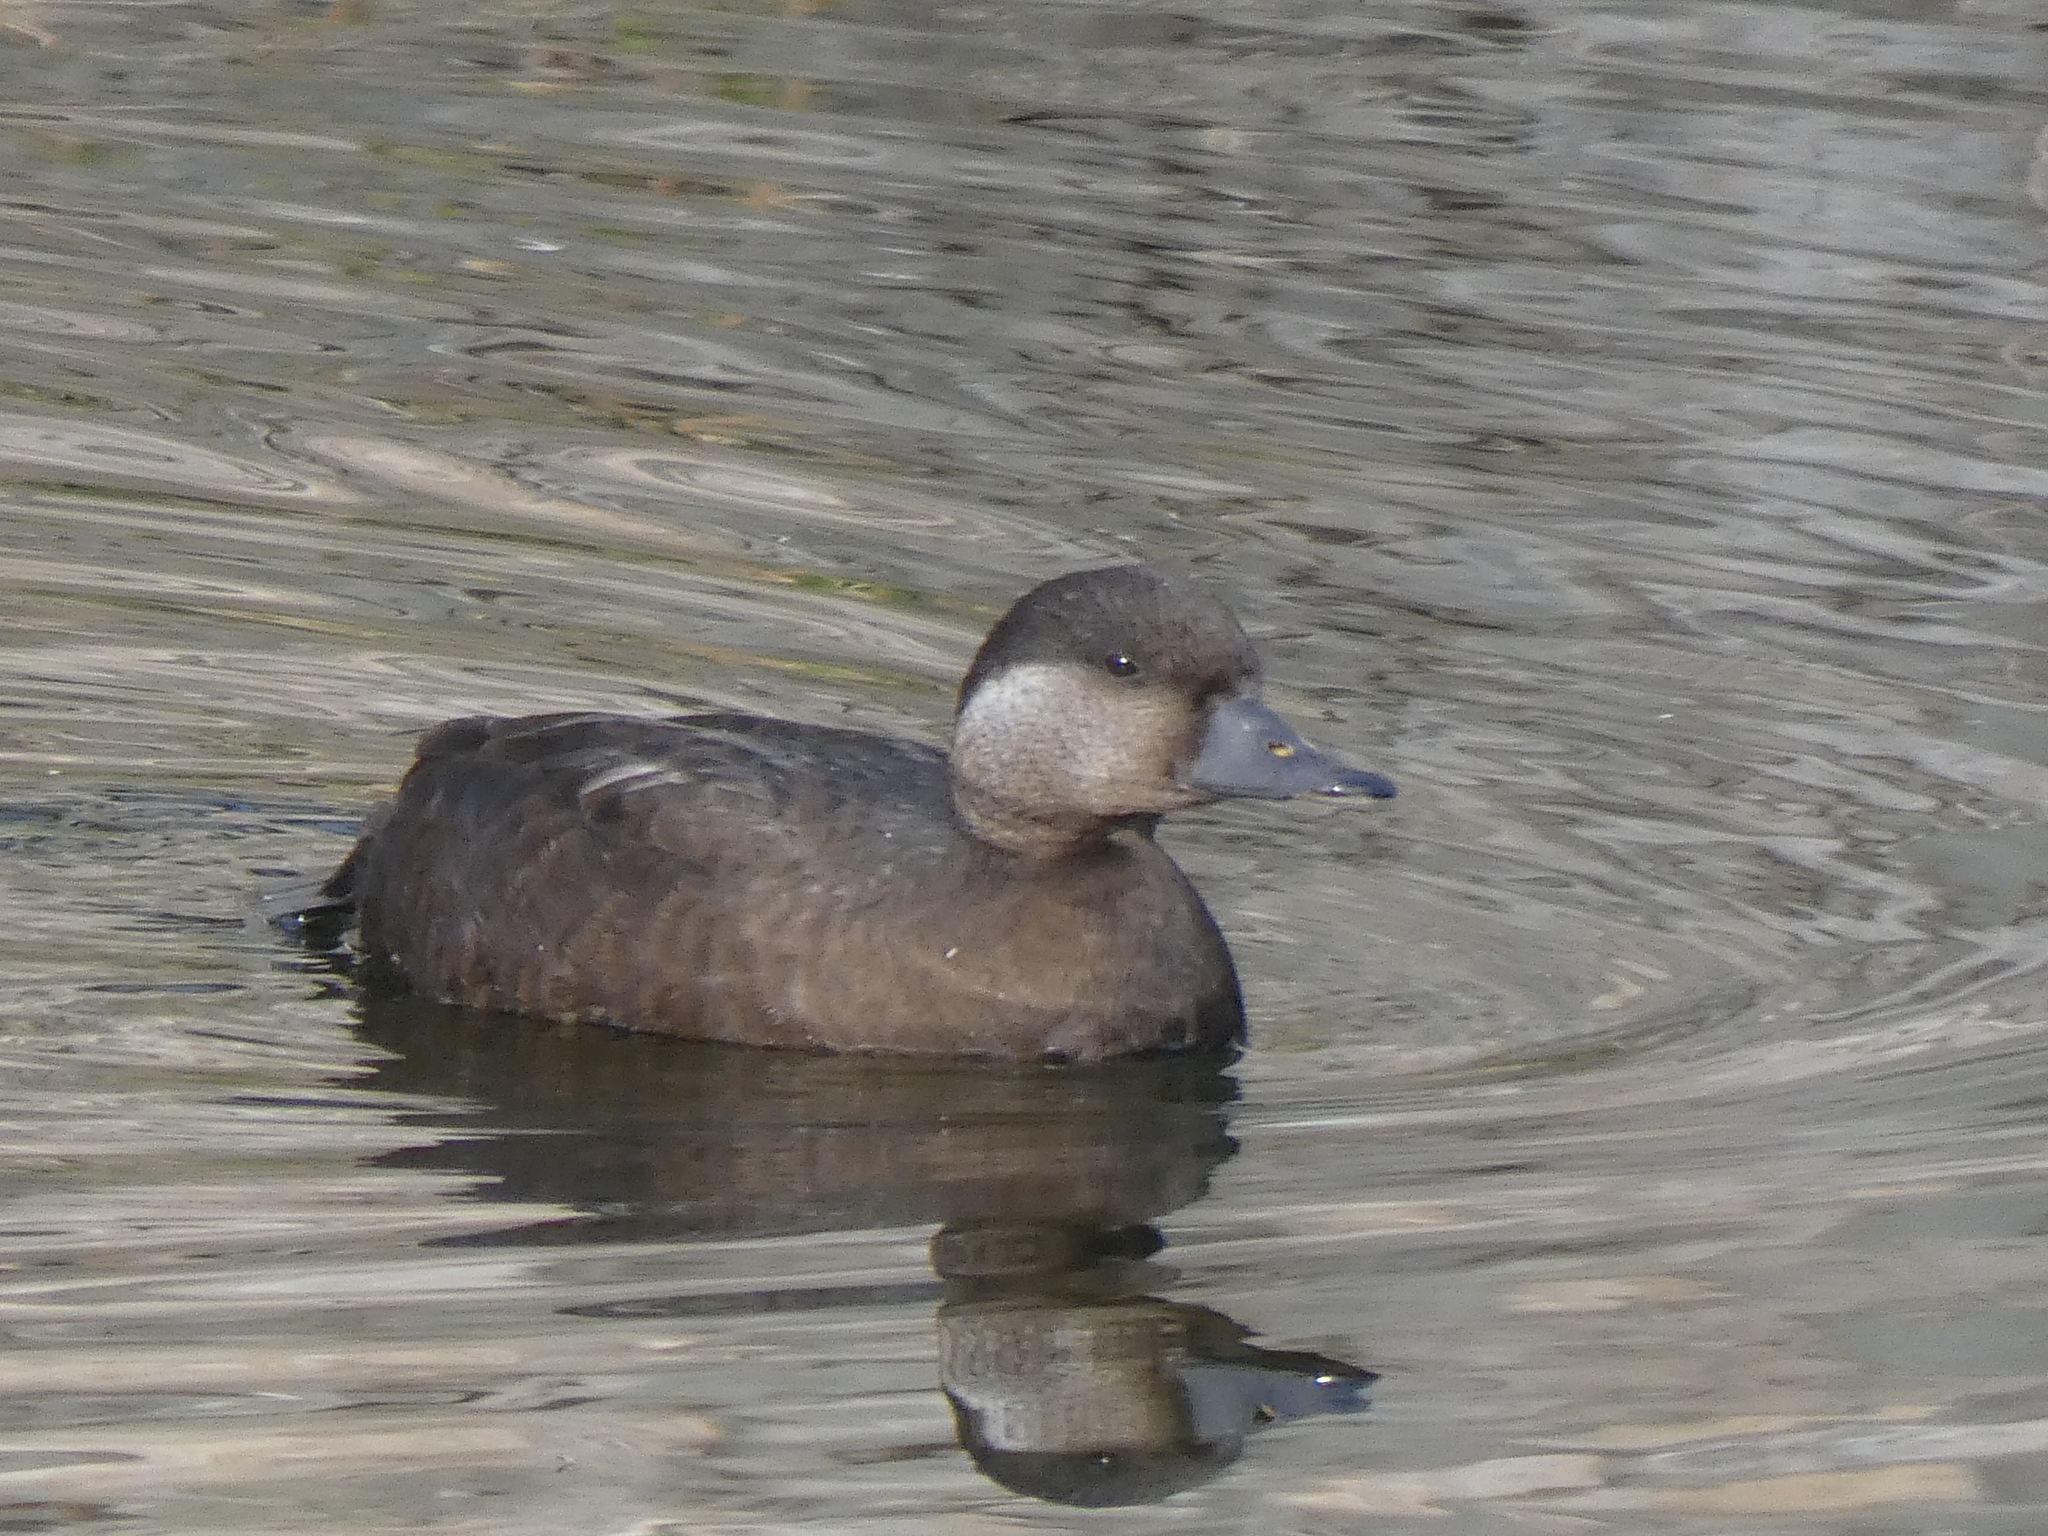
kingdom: Animalia
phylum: Chordata
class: Aves
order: Anseriformes
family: Anatidae
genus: Melanitta
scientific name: Melanitta nigra
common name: Common scoter
